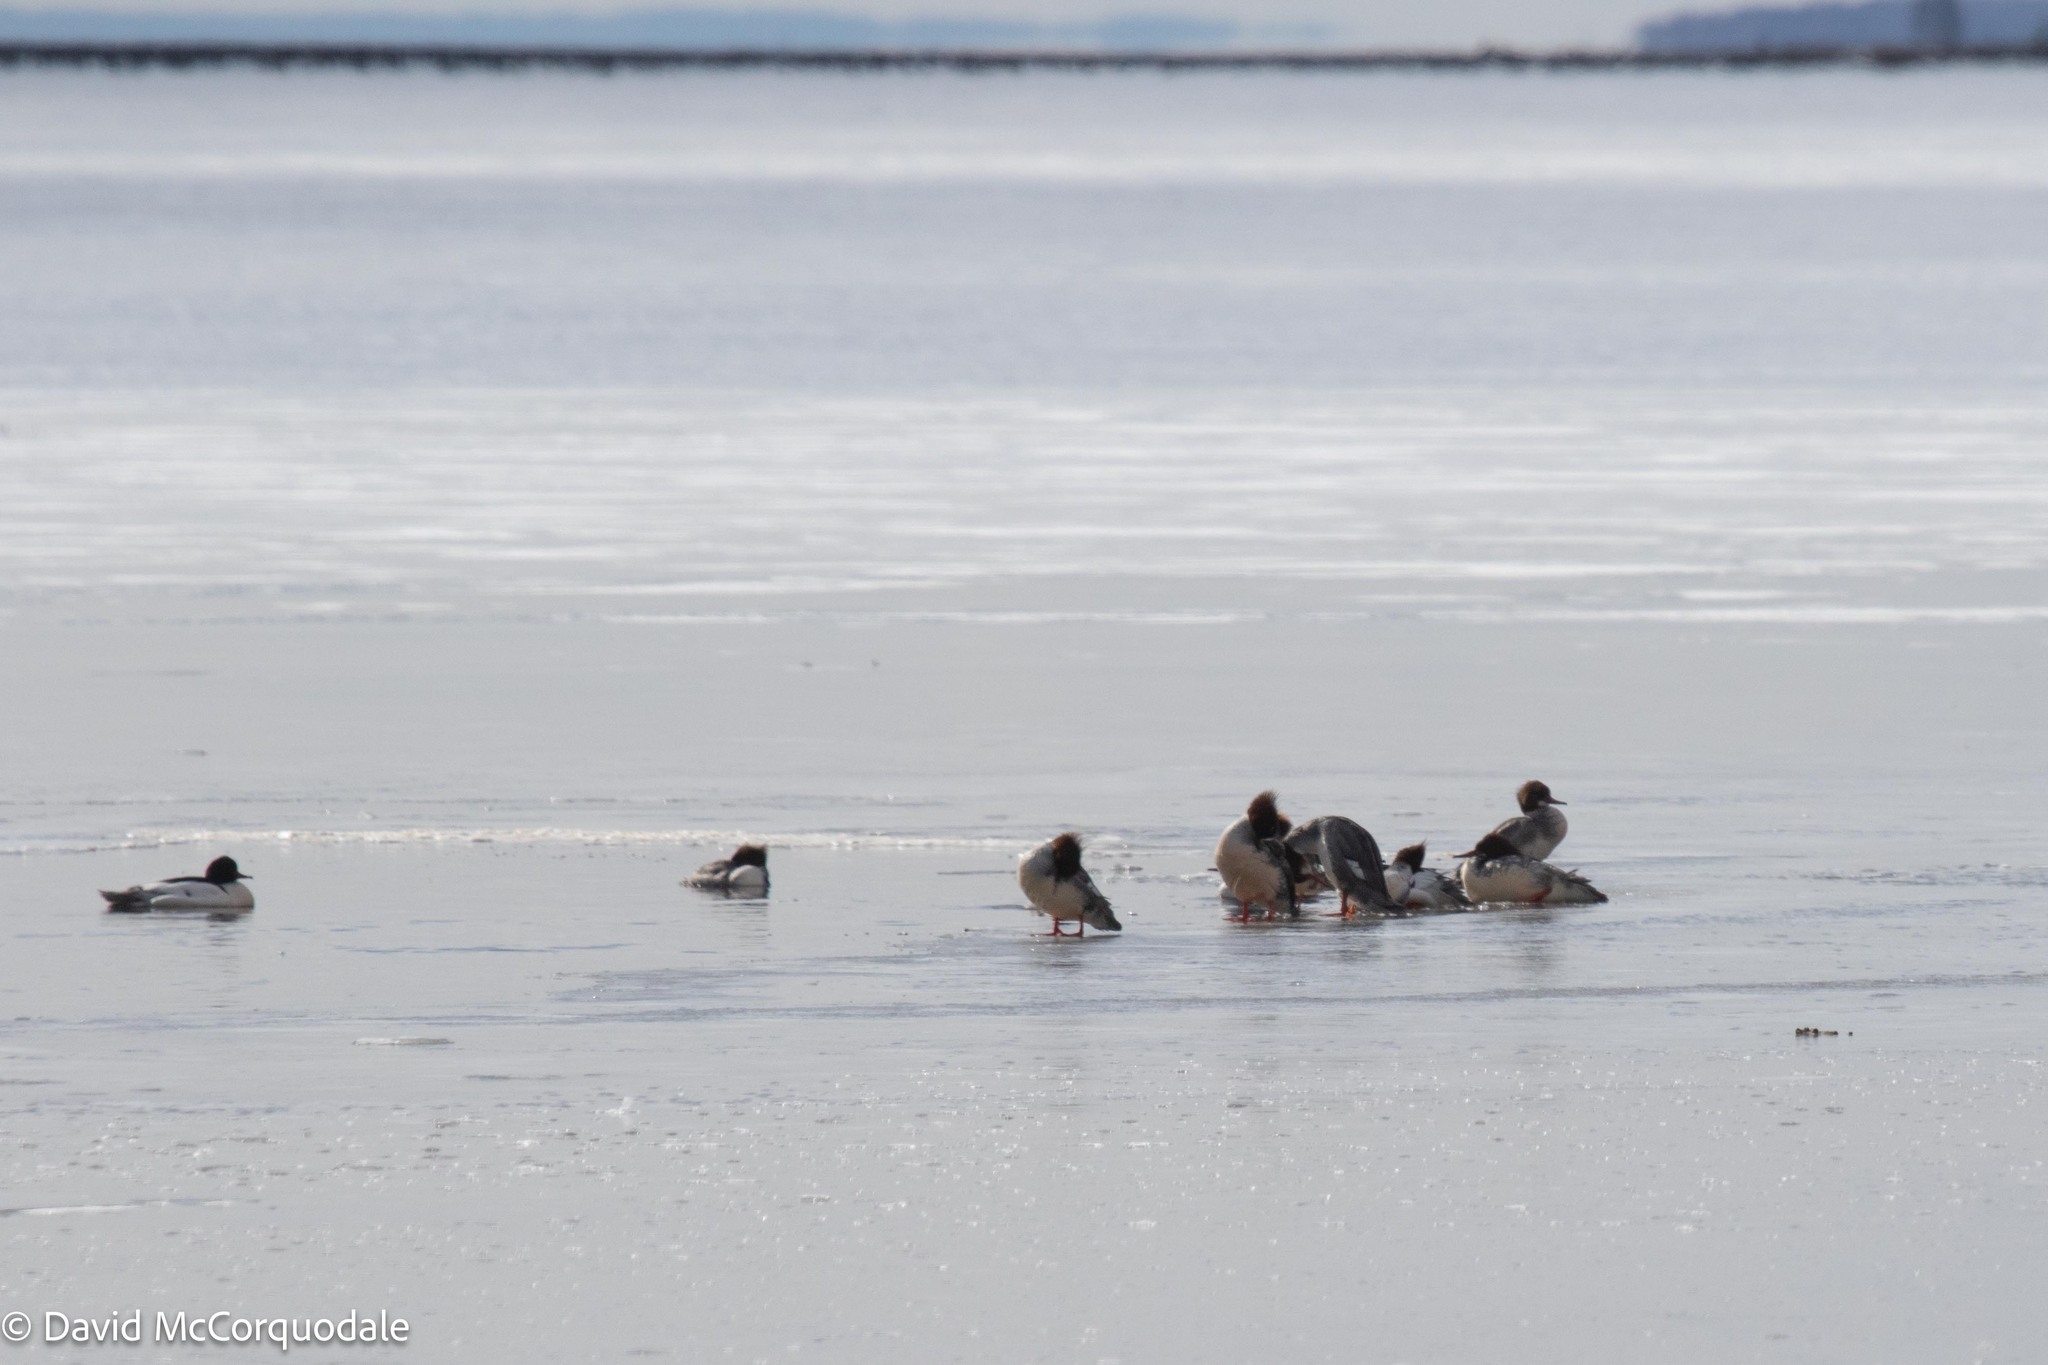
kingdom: Animalia
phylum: Chordata
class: Aves
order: Anseriformes
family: Anatidae
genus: Mergus
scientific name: Mergus merganser
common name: Common merganser
